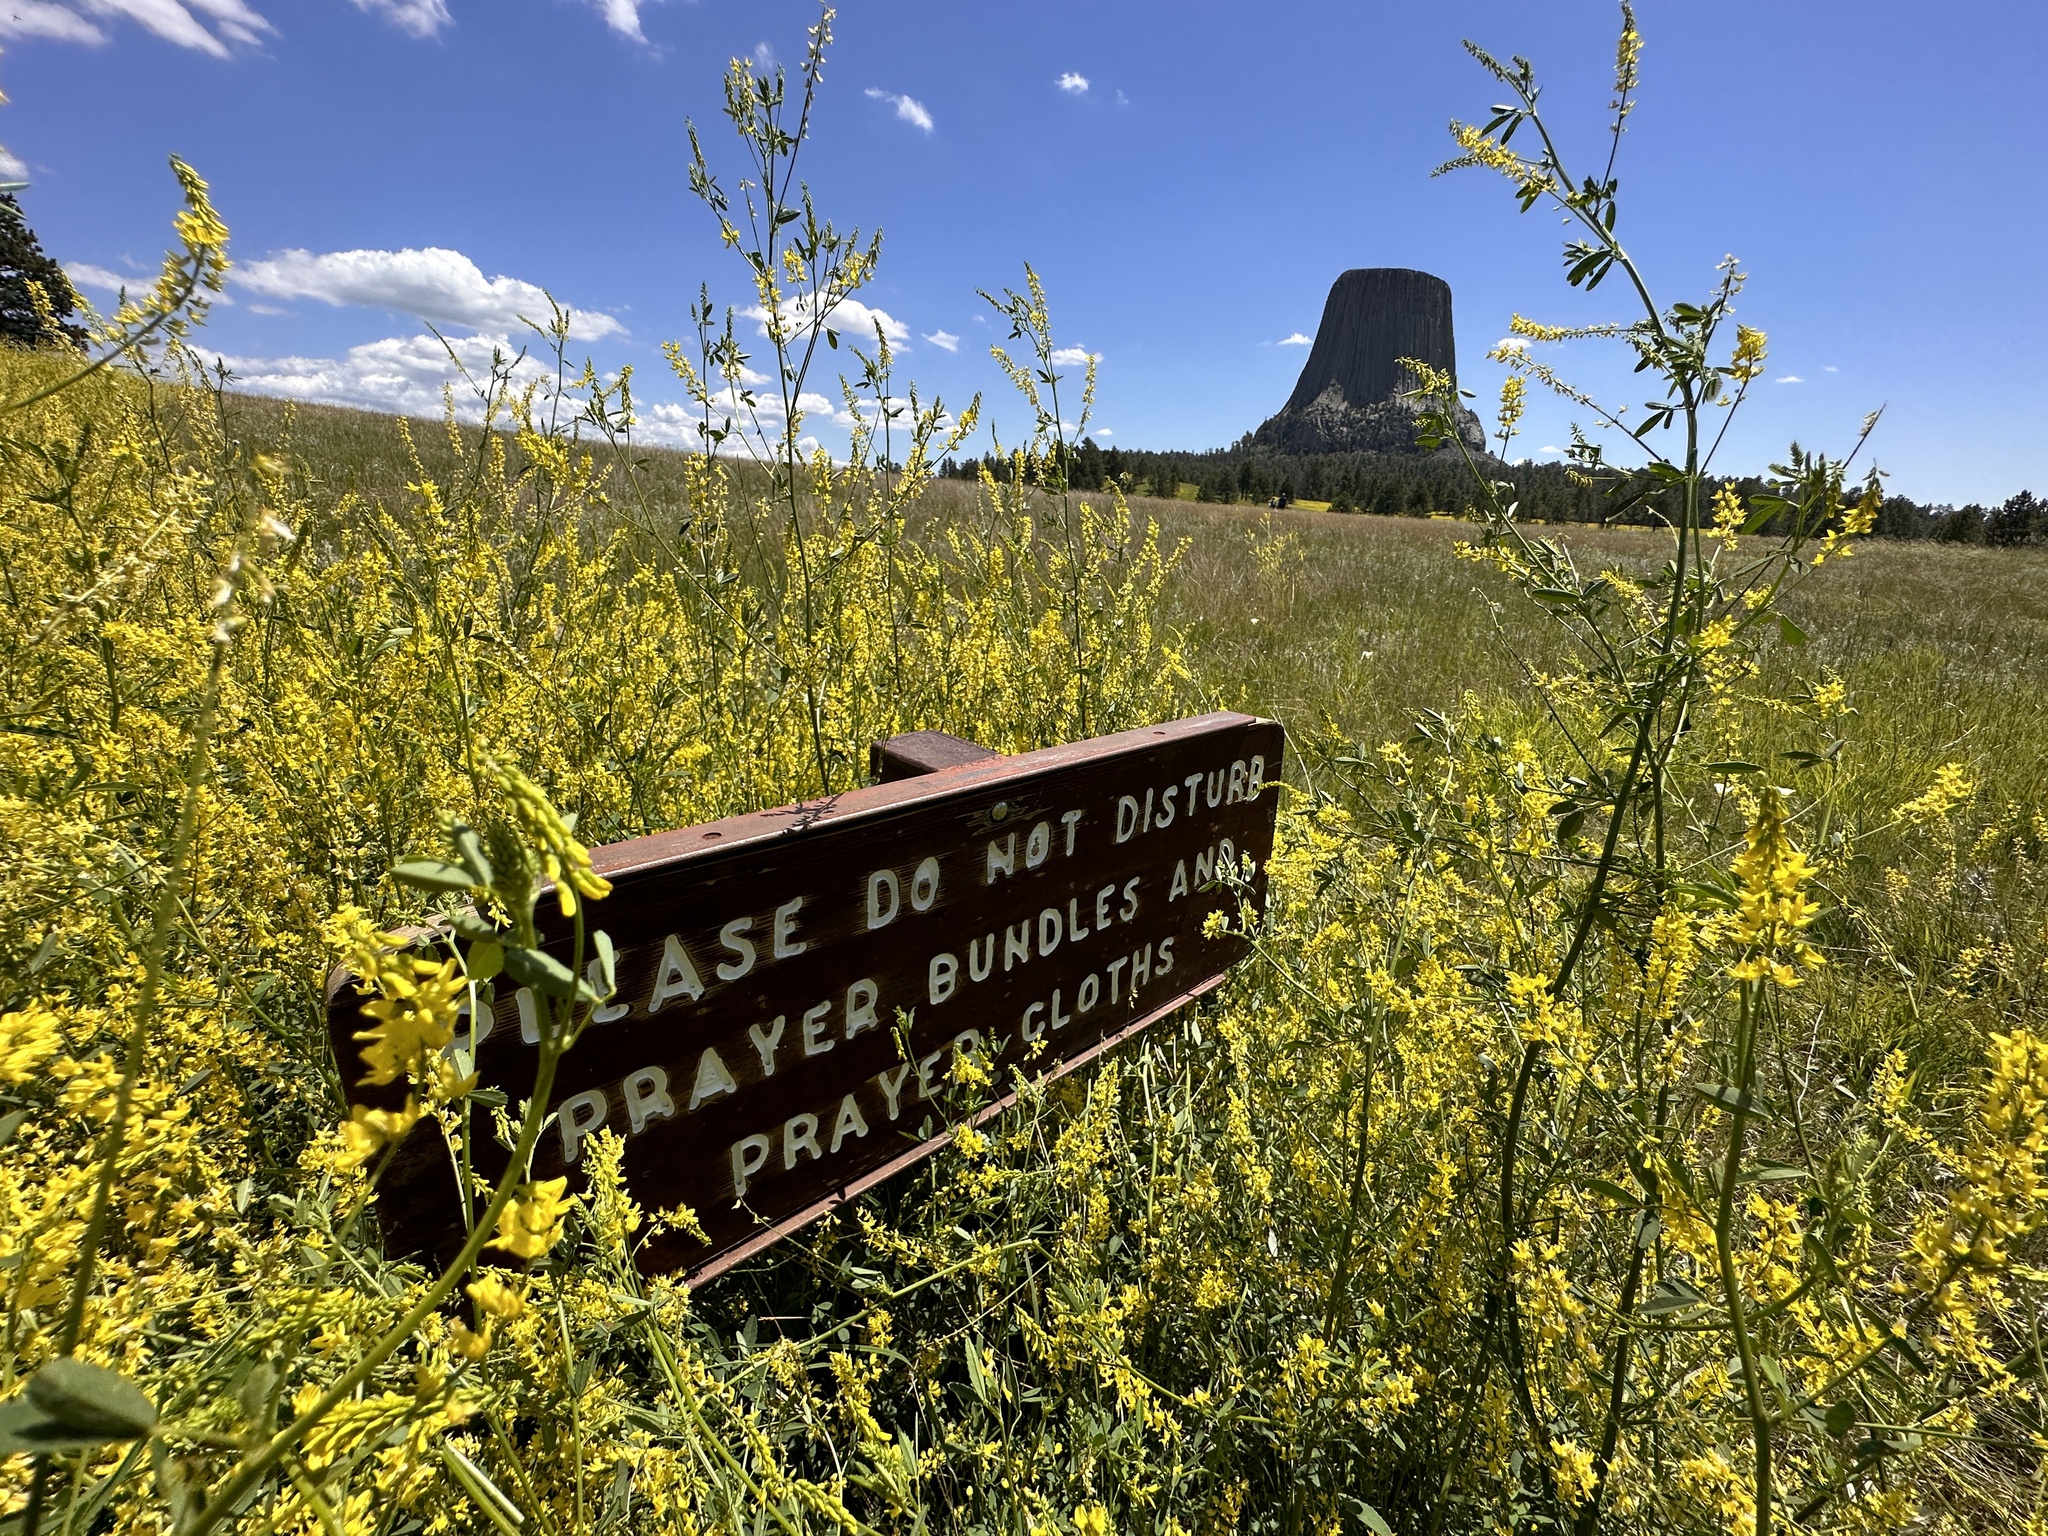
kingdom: Plantae
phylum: Tracheophyta
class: Magnoliopsida
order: Fabales
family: Fabaceae
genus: Melilotus
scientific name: Melilotus officinalis
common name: Sweetclover
